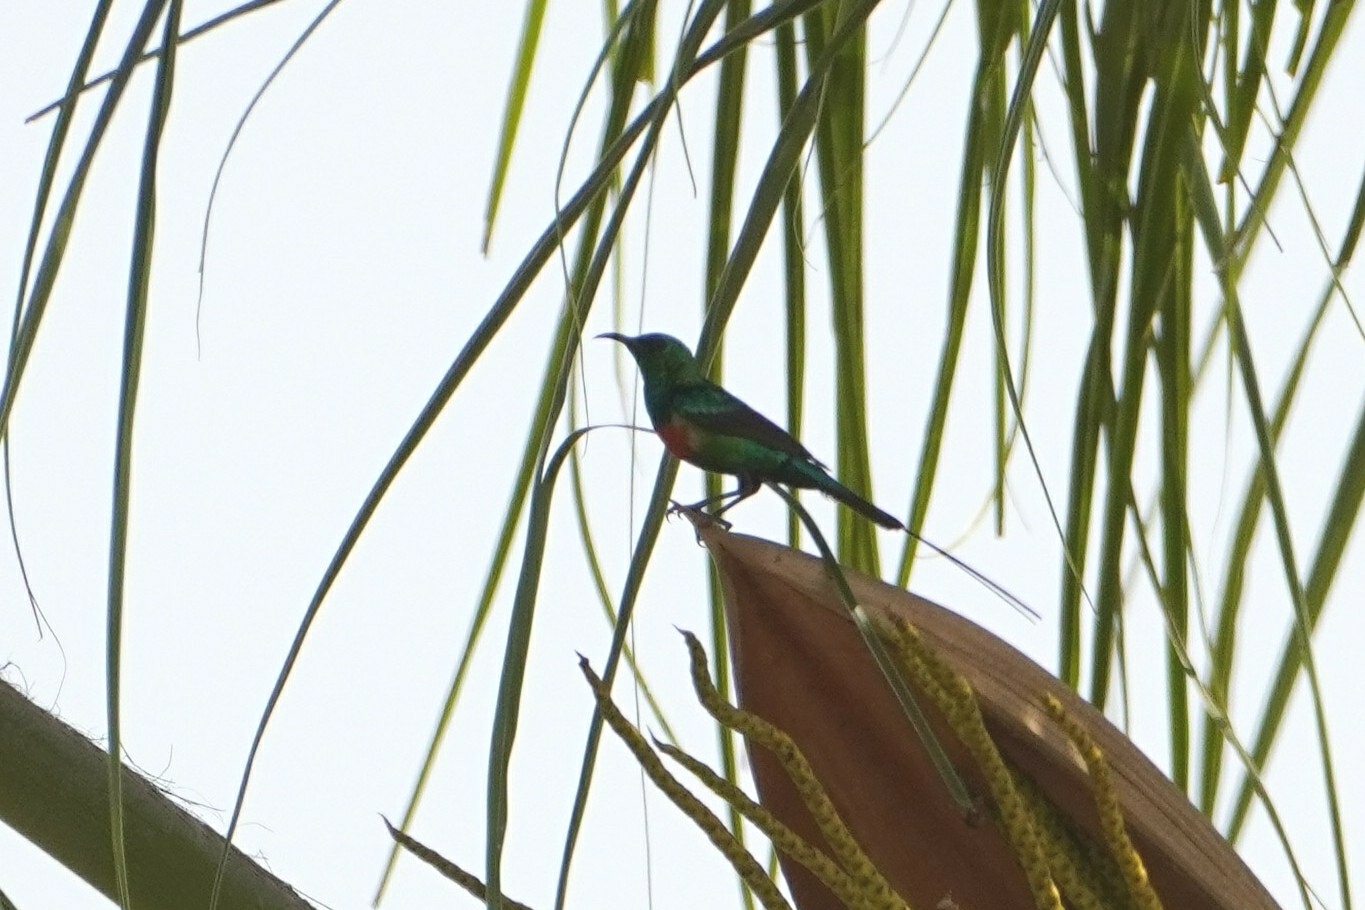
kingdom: Animalia
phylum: Chordata
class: Aves
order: Passeriformes
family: Nectariniidae
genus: Cinnyris
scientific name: Cinnyris pulchellus
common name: Beautiful sunbird
